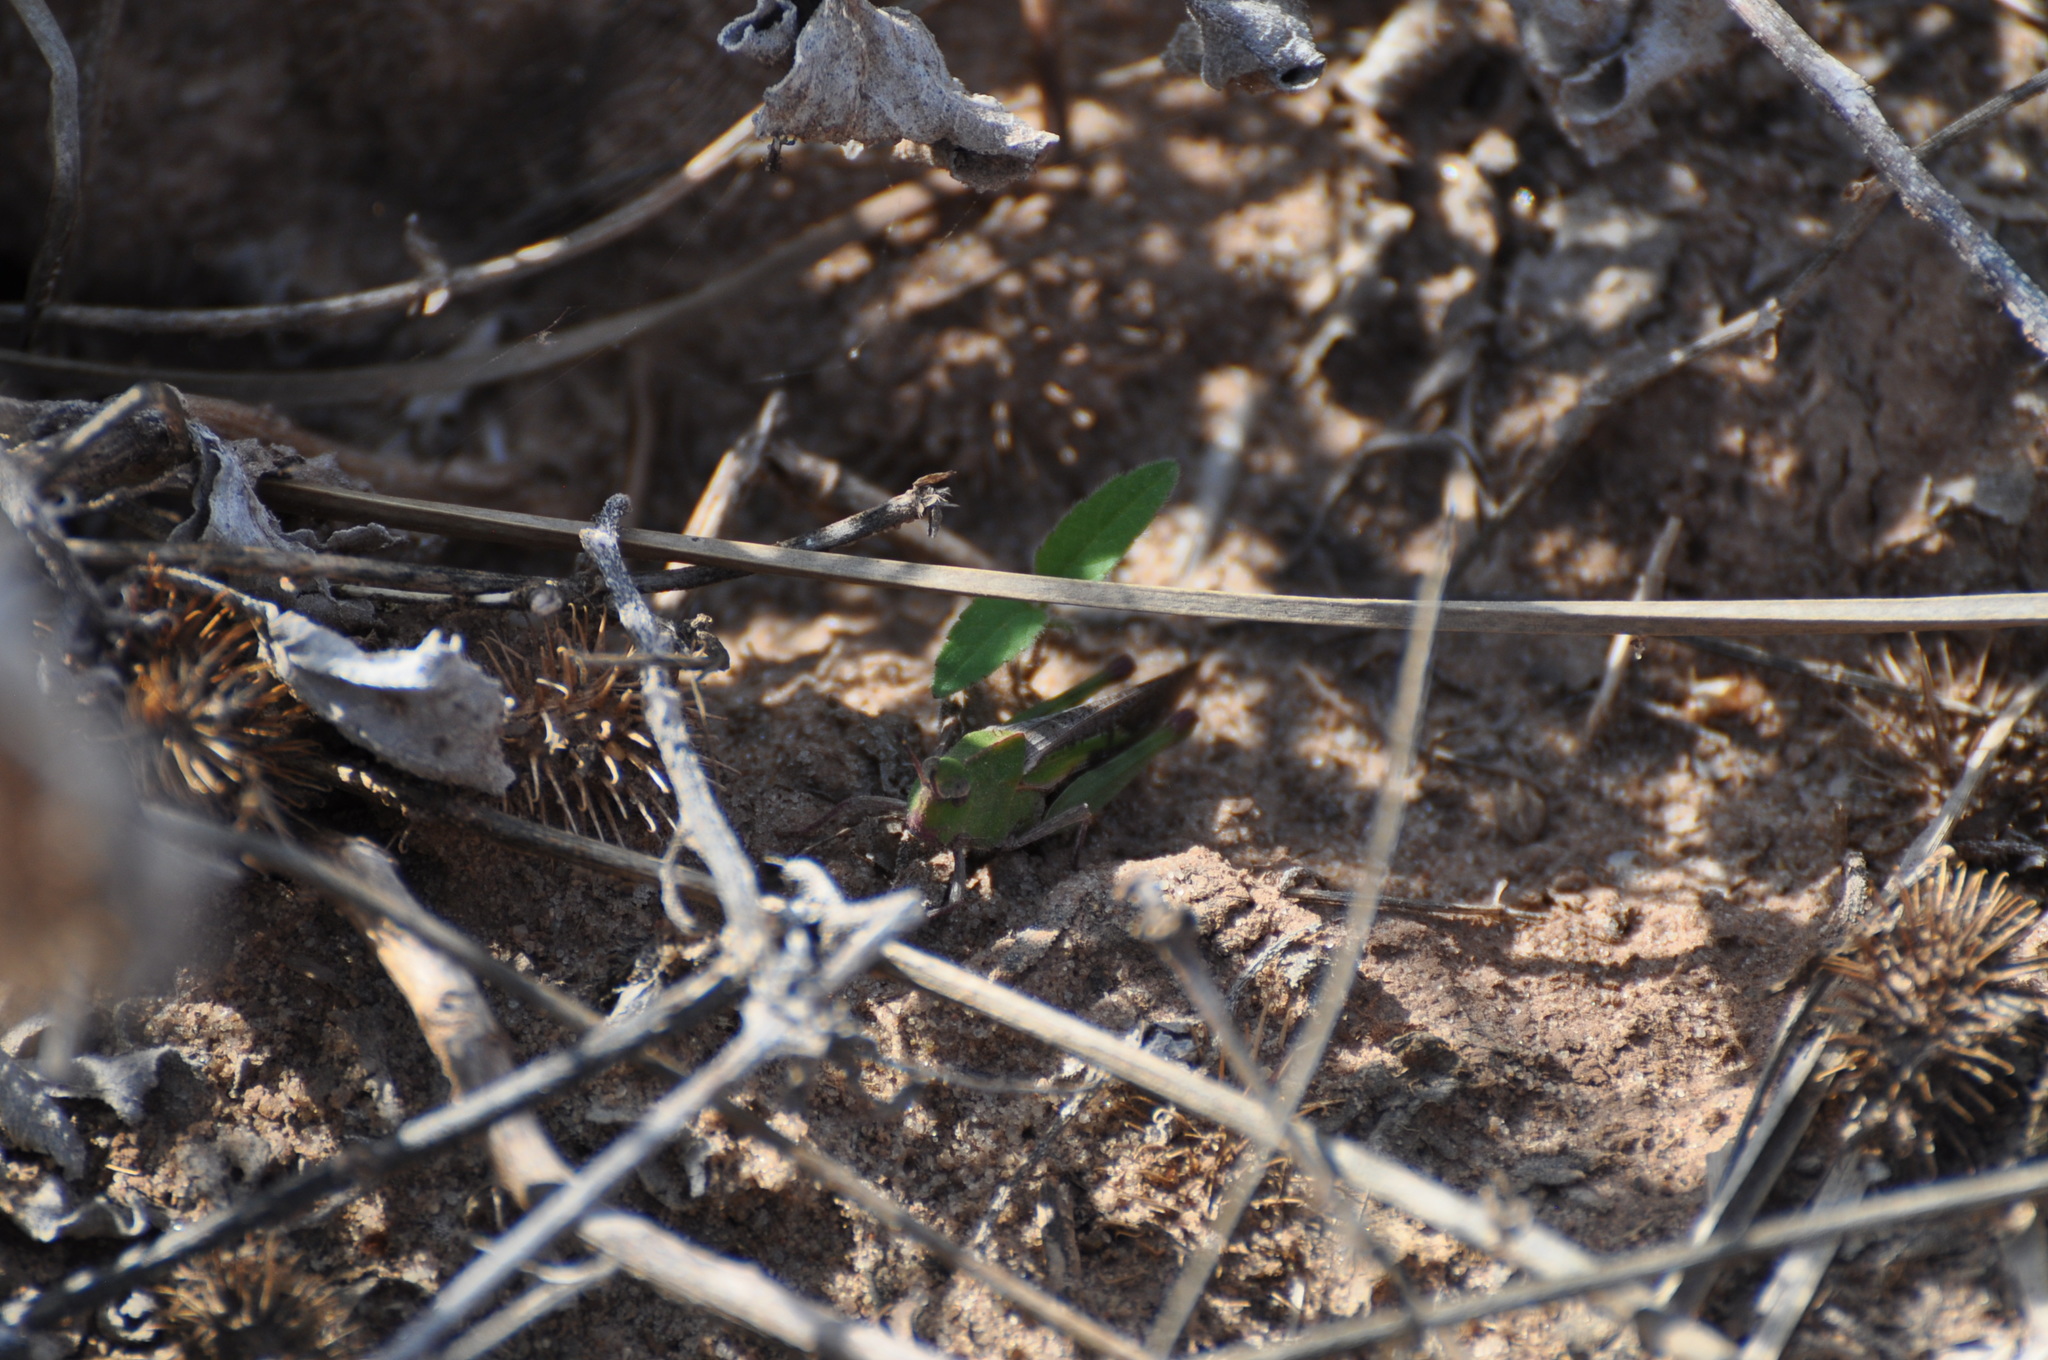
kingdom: Animalia
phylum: Arthropoda
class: Insecta
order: Orthoptera
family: Acrididae
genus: Chortophaga
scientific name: Chortophaga viridifasciata
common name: Green-striped grasshopper
